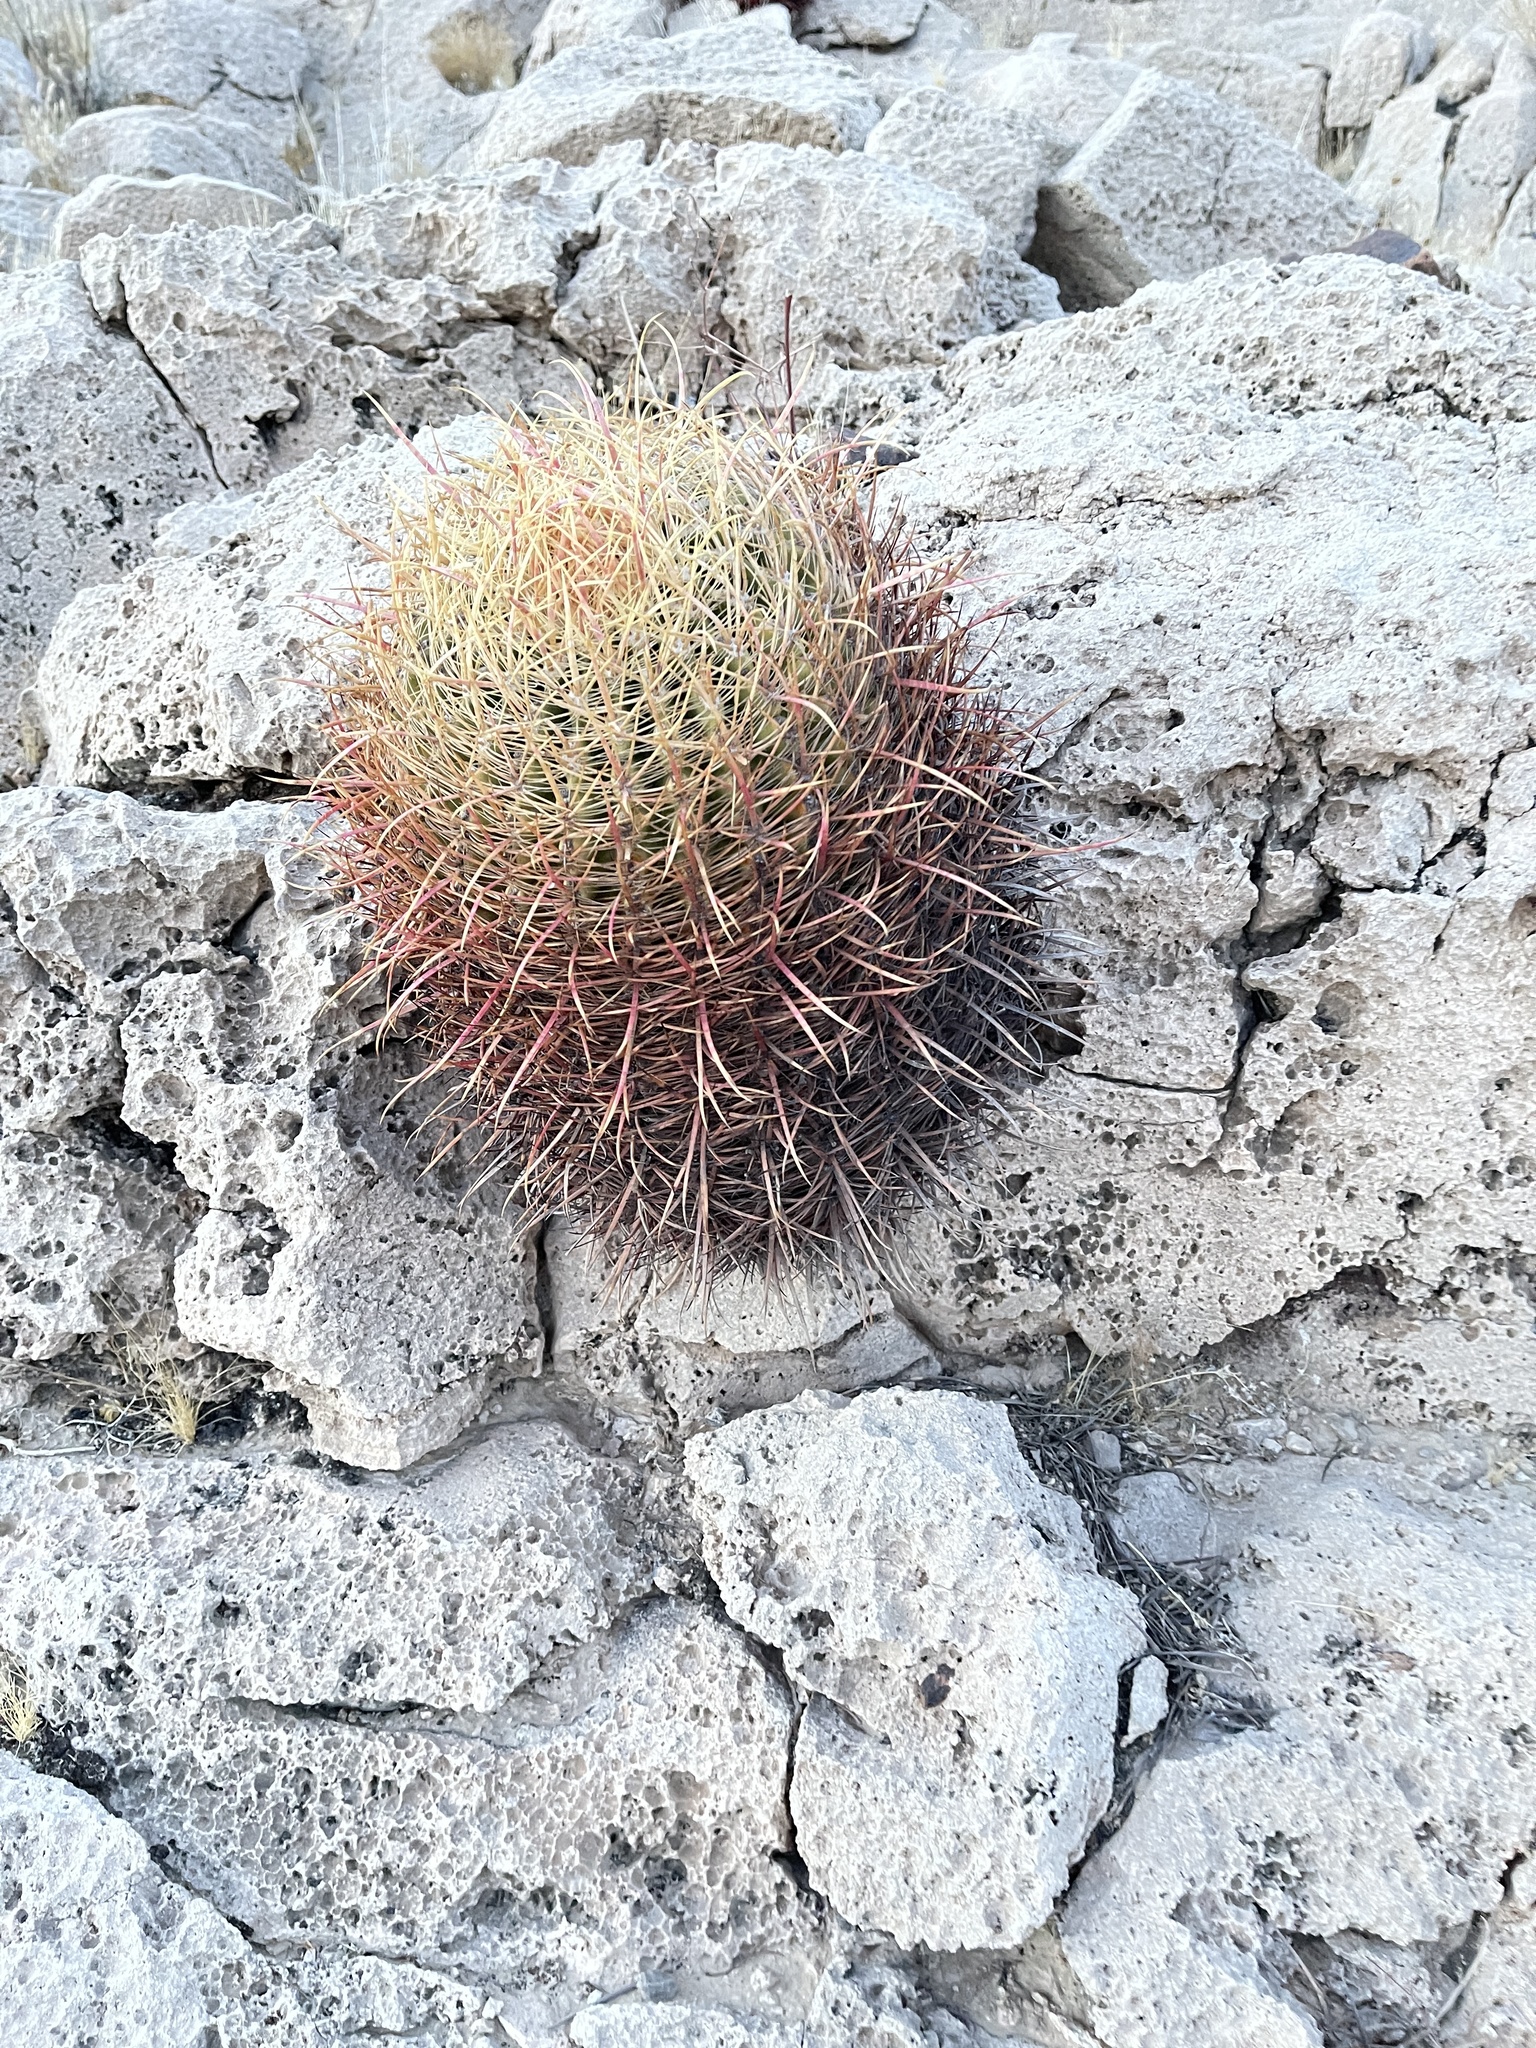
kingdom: Plantae
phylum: Tracheophyta
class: Magnoliopsida
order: Caryophyllales
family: Cactaceae
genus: Ferocactus
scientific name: Ferocactus cylindraceus
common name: California barrel cactus
